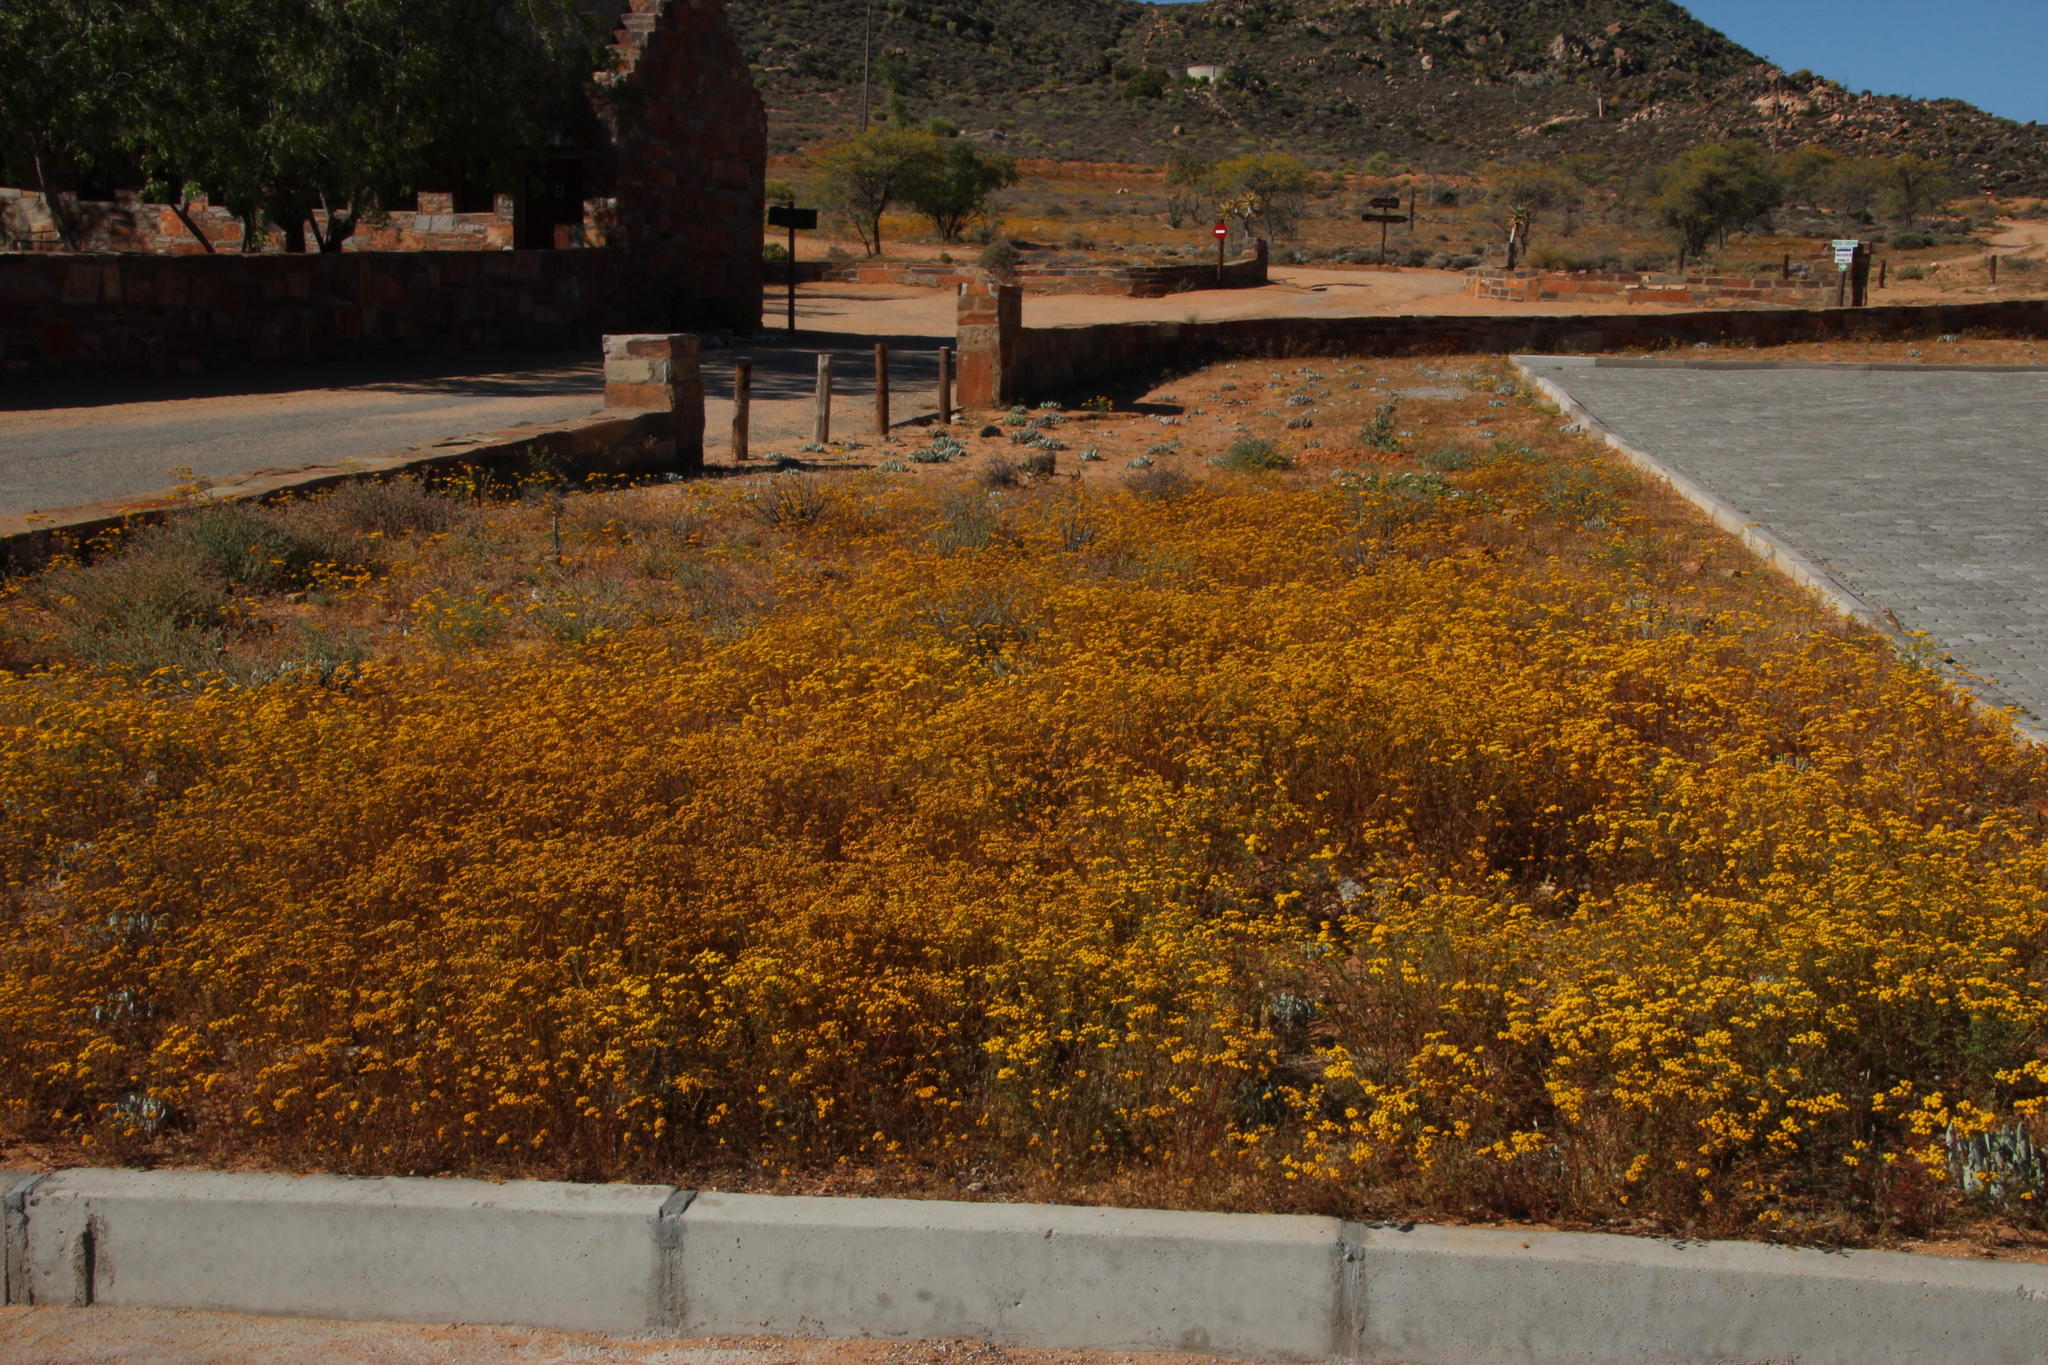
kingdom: Plantae
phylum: Tracheophyta
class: Magnoliopsida
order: Asterales
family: Asteraceae
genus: Oncosiphon
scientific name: Oncosiphon suffruticosus
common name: Shrubby mayweed
